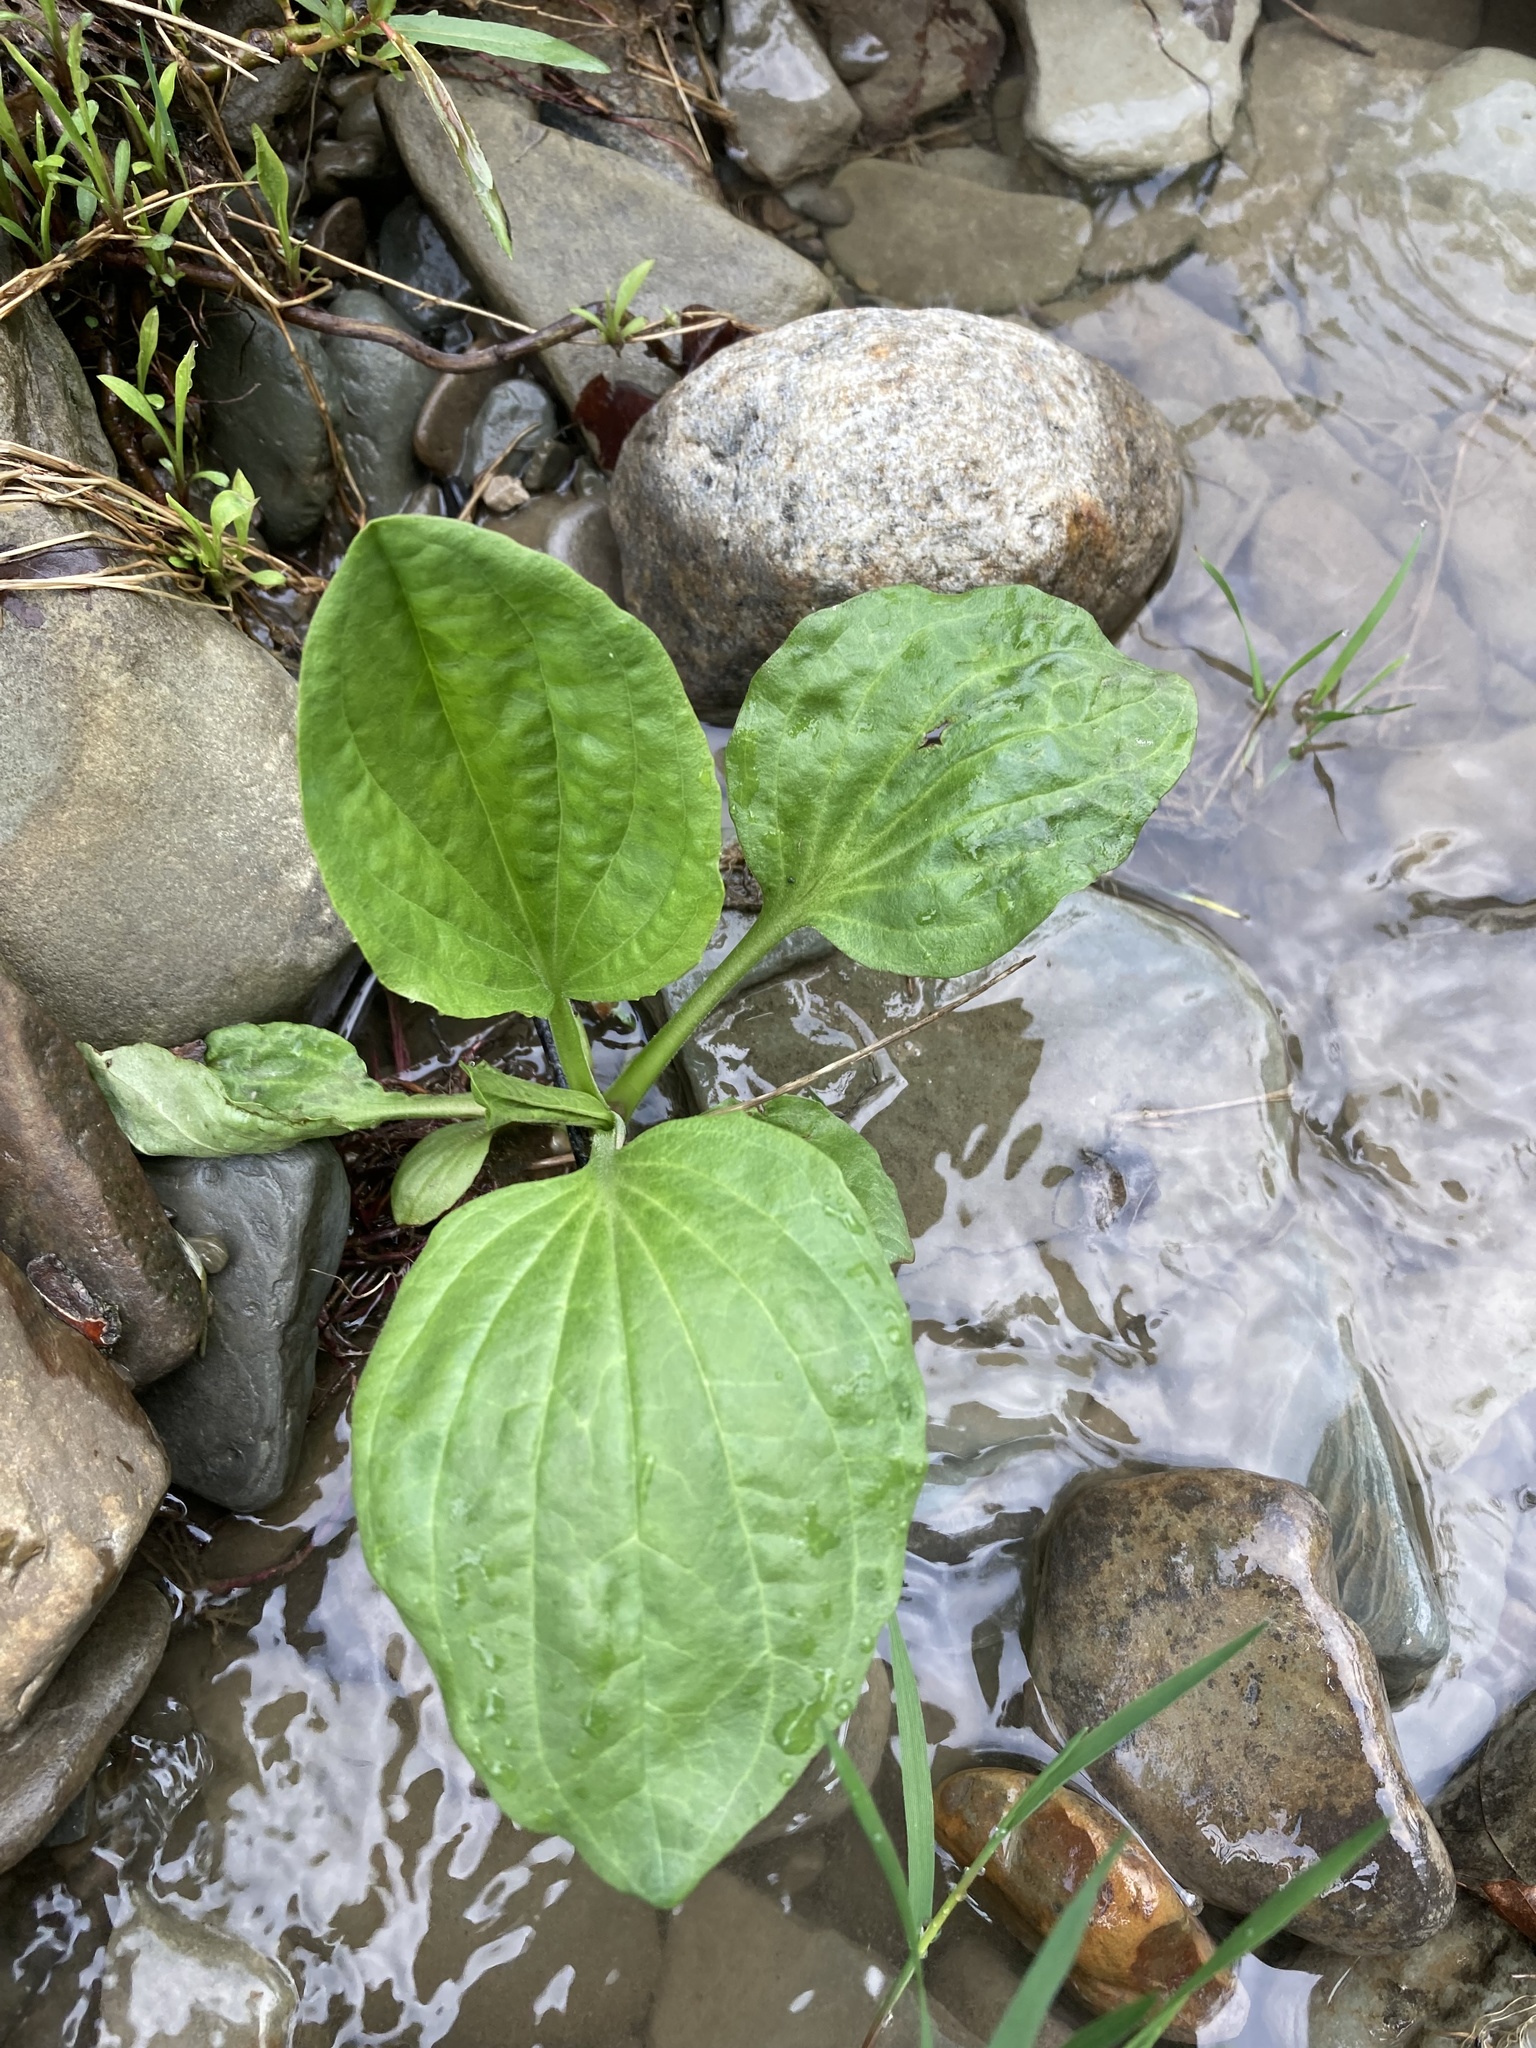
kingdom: Plantae
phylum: Tracheophyta
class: Magnoliopsida
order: Lamiales
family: Plantaginaceae
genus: Plantago
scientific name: Plantago major
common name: Common plantain
